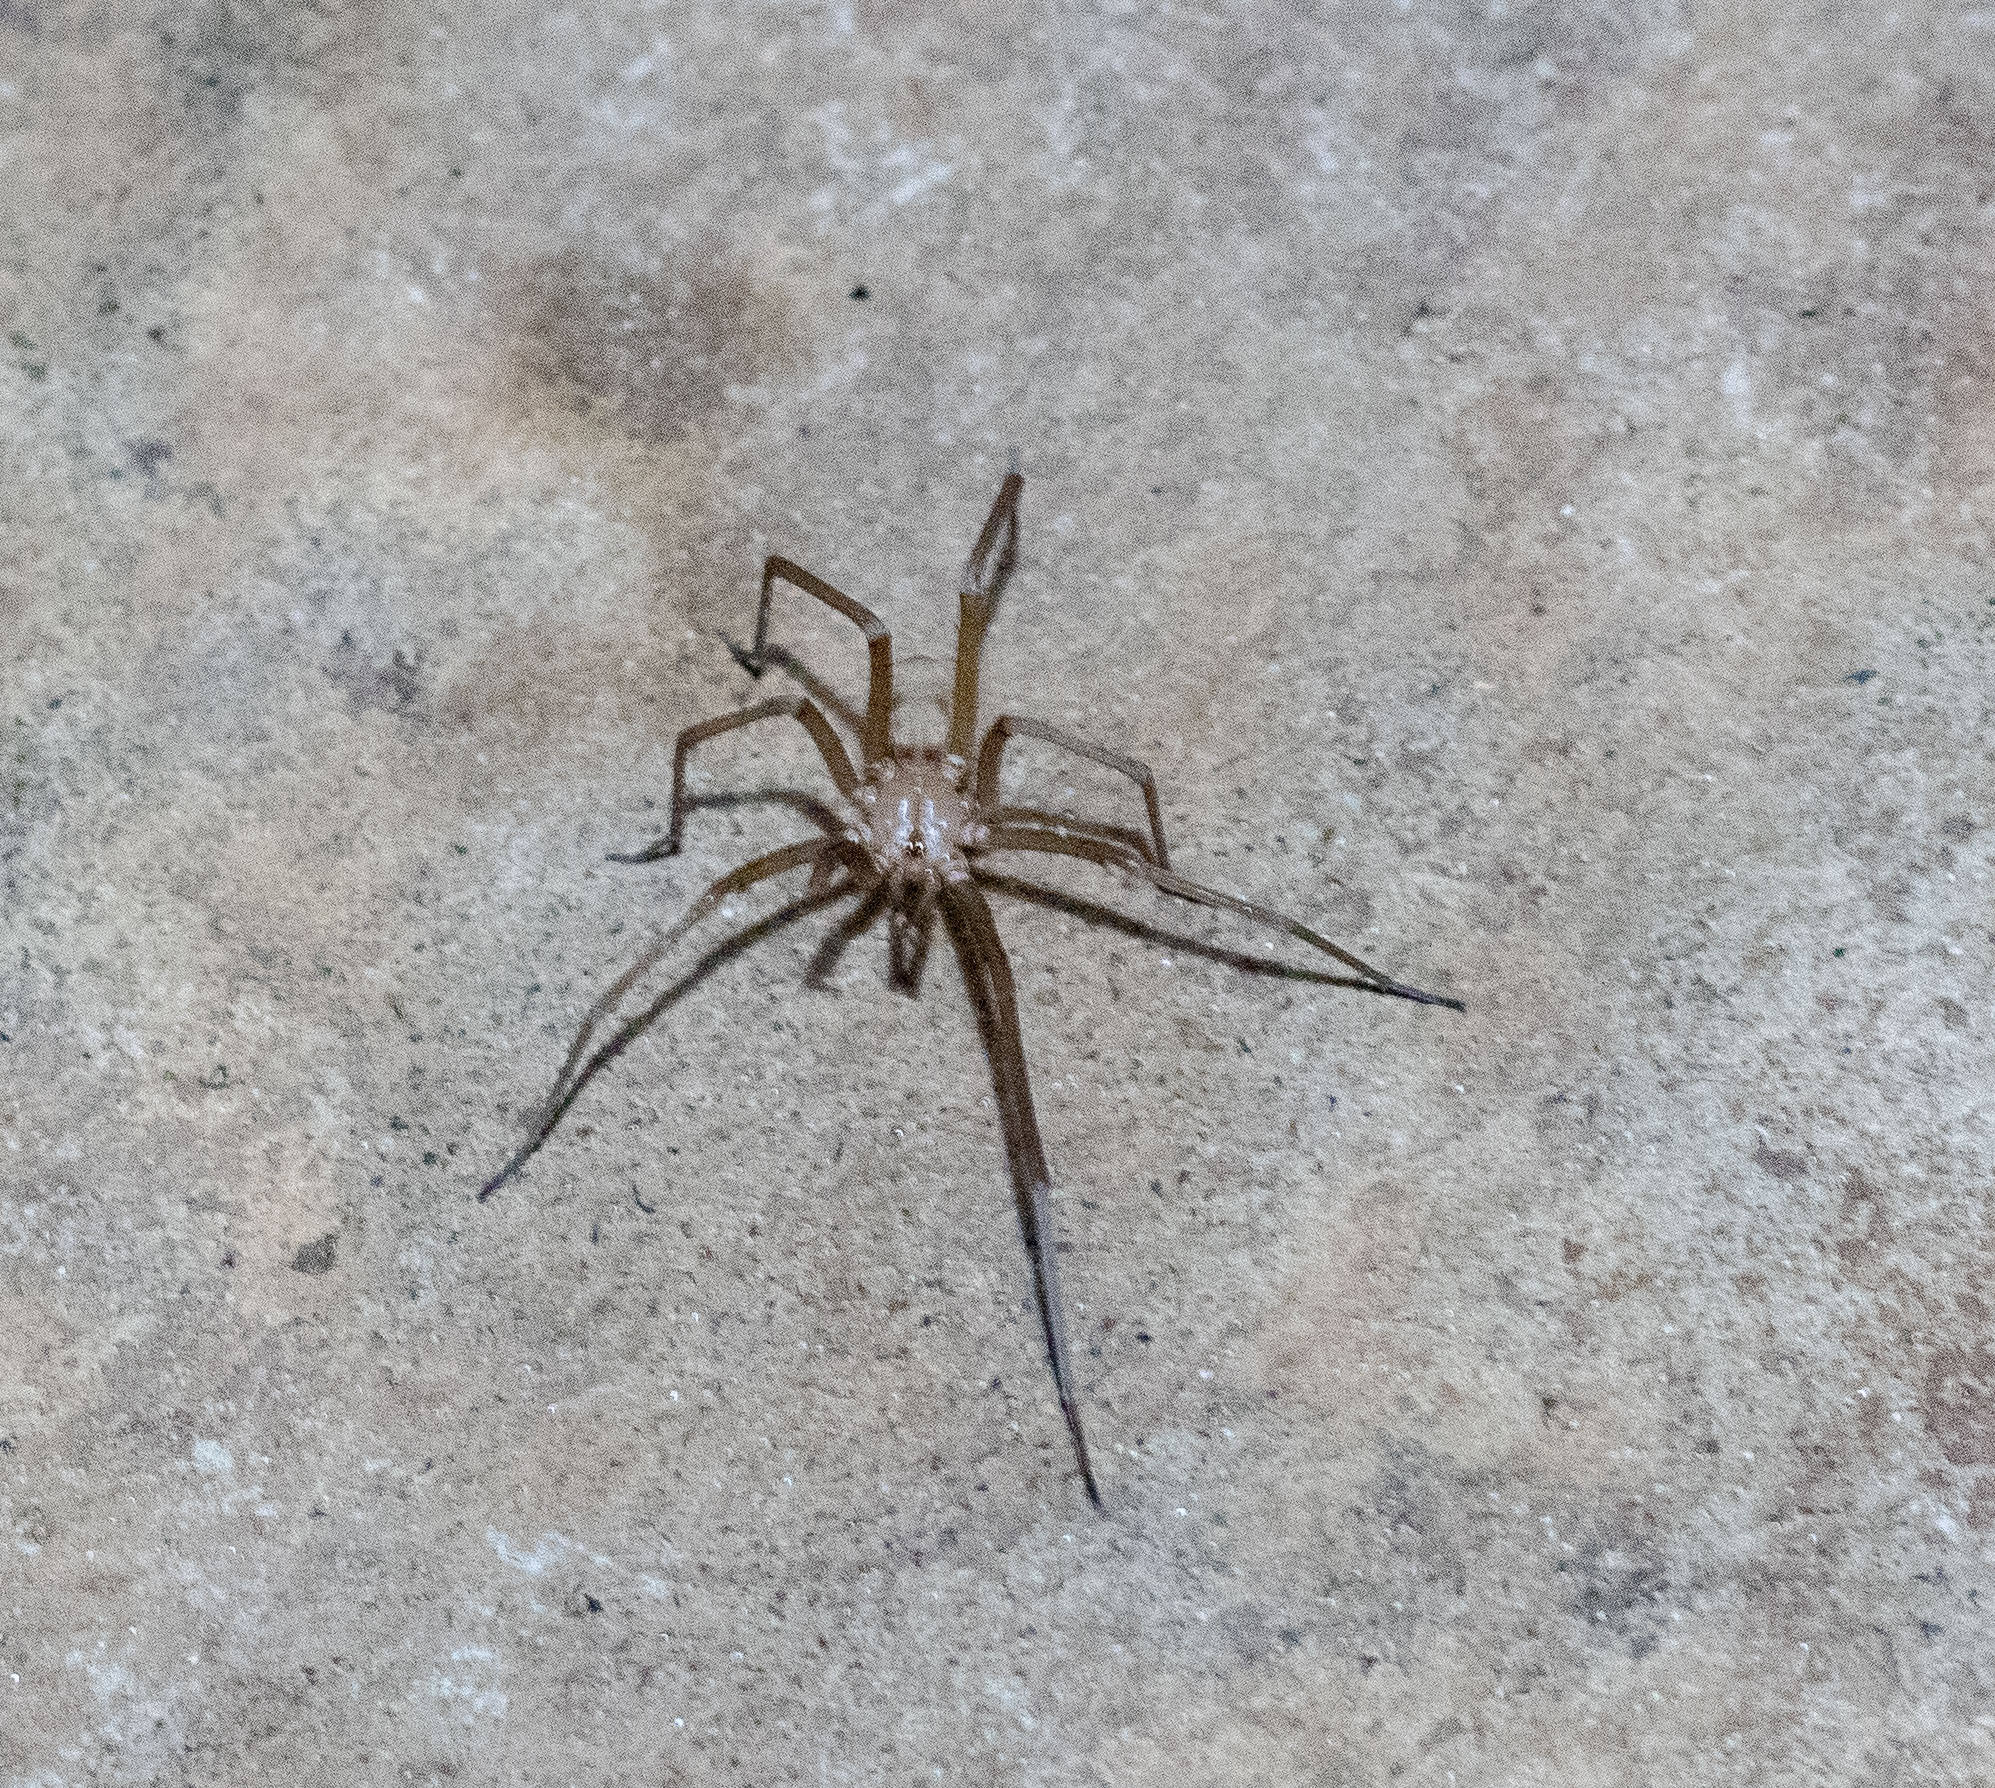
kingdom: Animalia
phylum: Arthropoda
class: Arachnida
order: Araneae
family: Filistatidae
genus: Kukulcania
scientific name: Kukulcania hibernalis
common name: Crevice weaver
